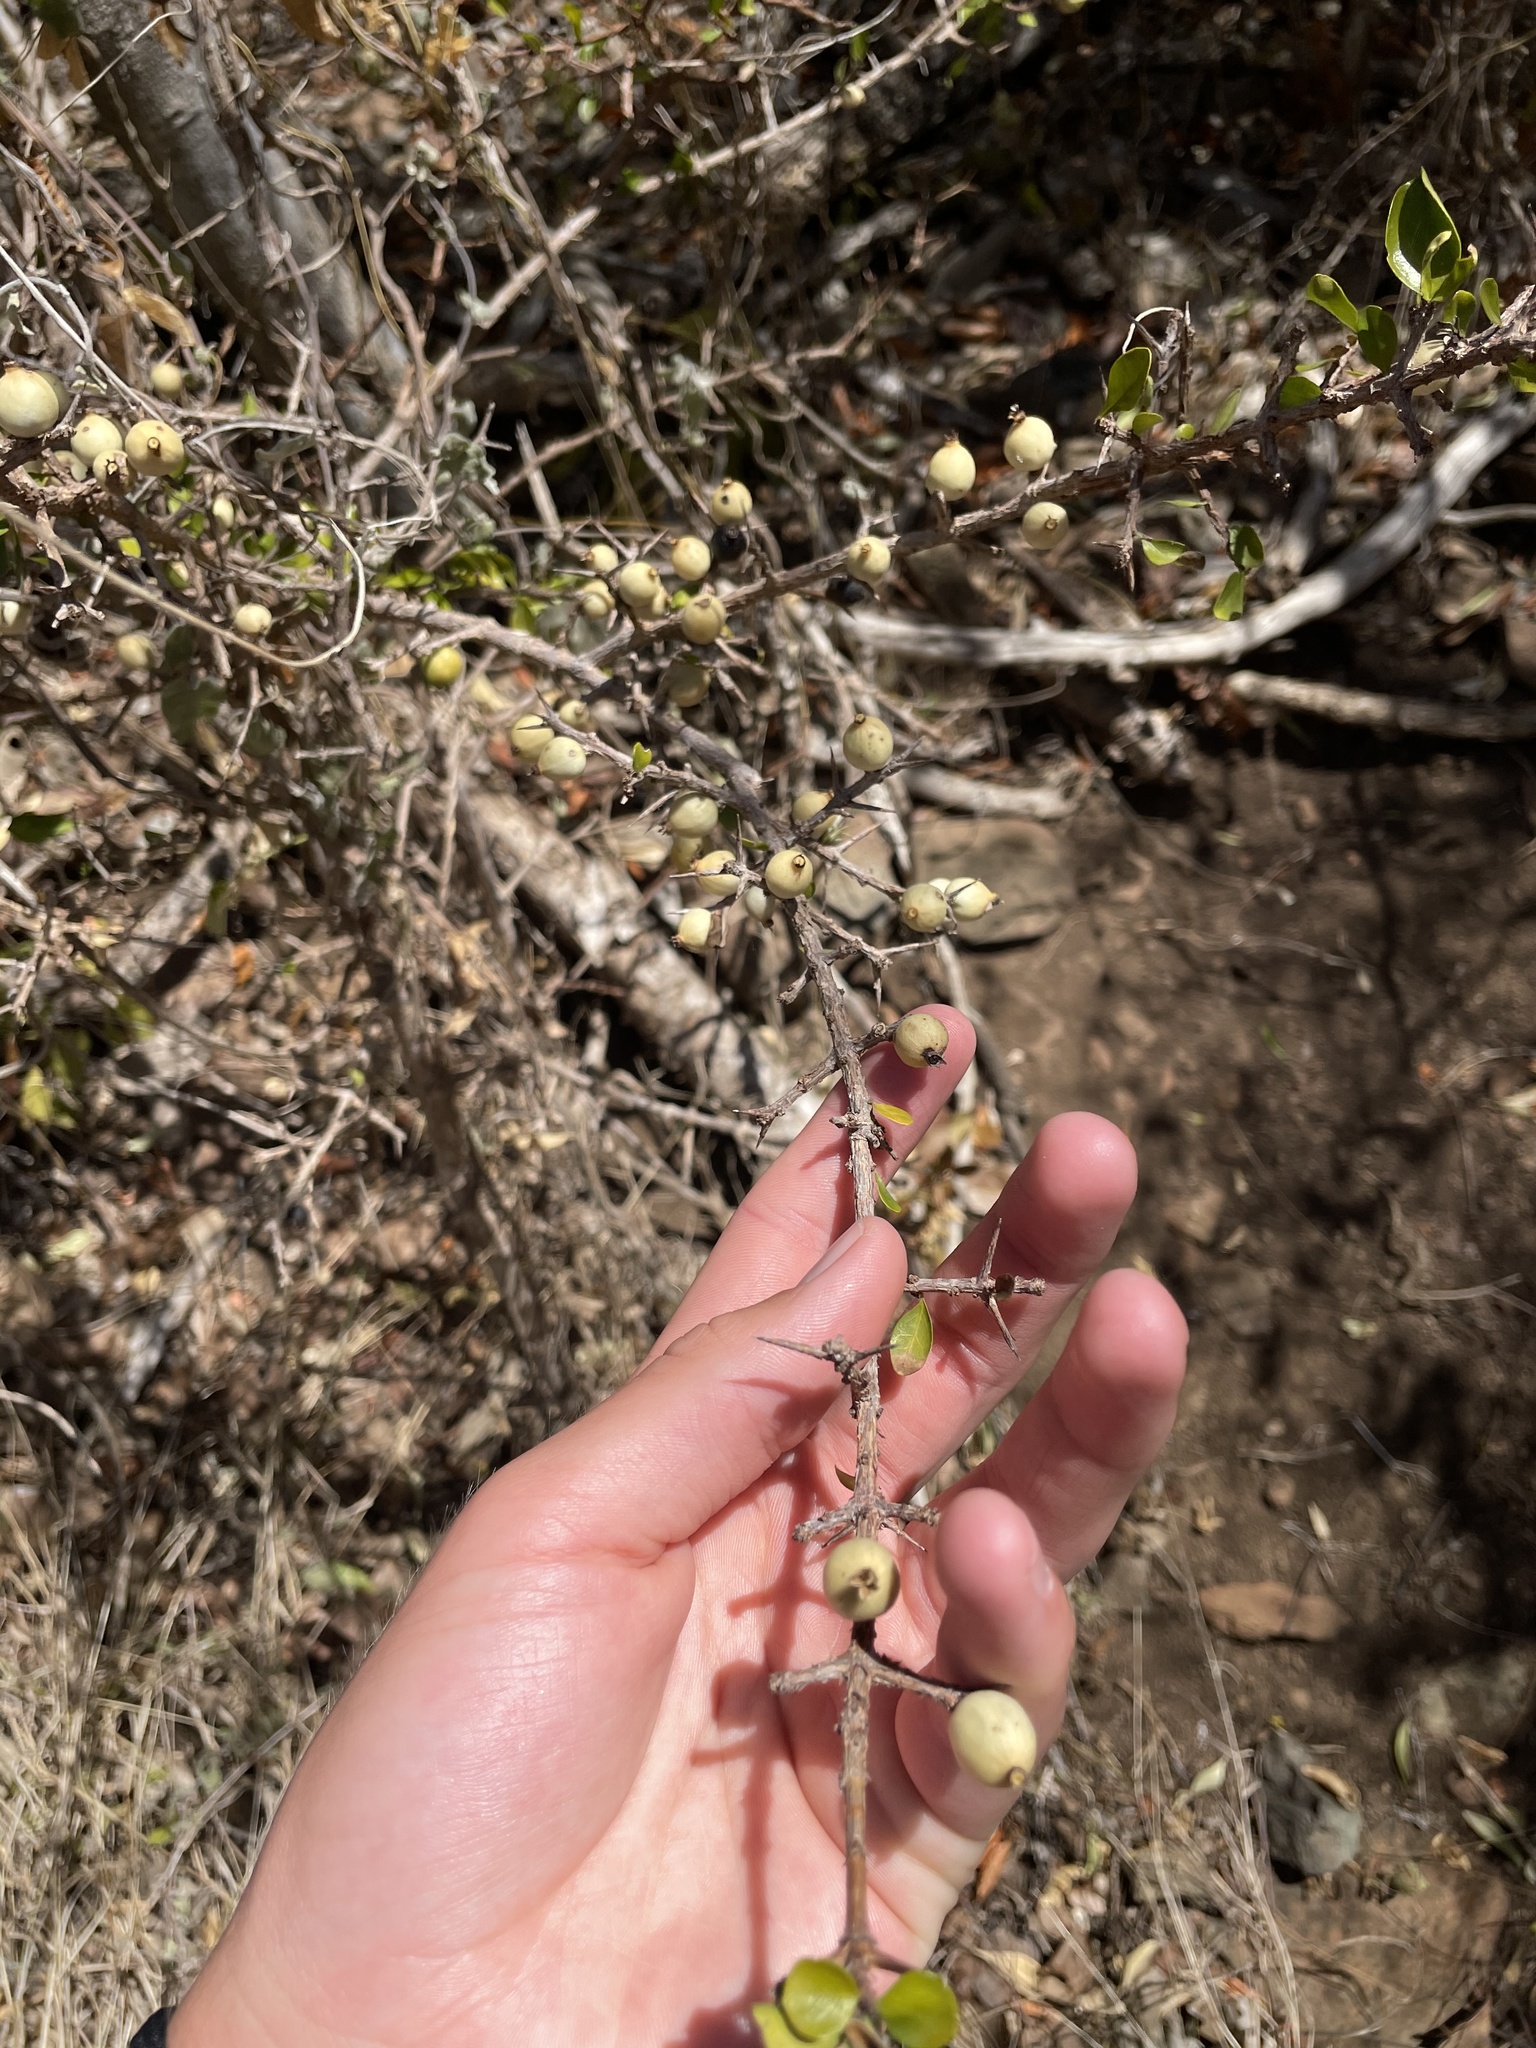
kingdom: Plantae
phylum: Tracheophyta
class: Magnoliopsida
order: Gentianales
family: Rubiaceae
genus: Randia
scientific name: Randia aculeata
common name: Inkberry
